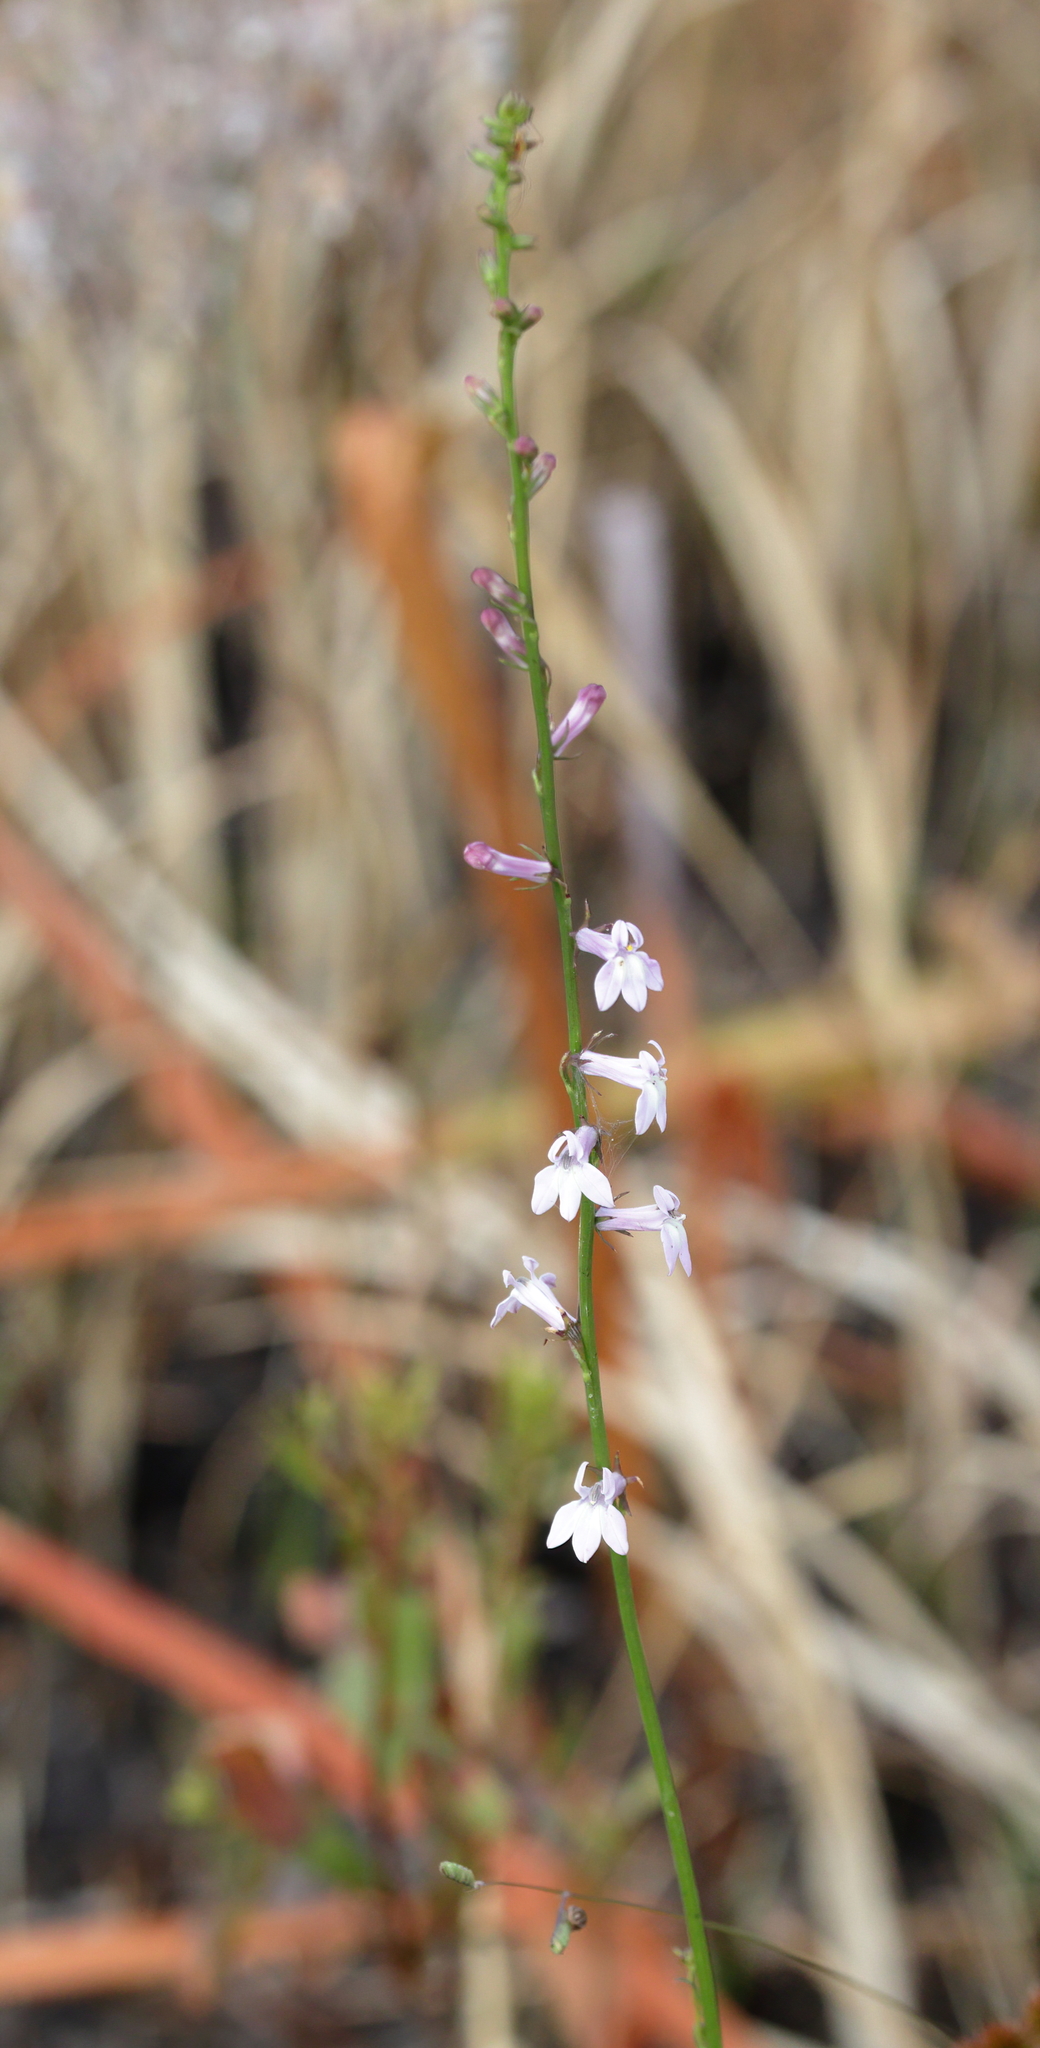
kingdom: Plantae
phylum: Tracheophyta
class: Magnoliopsida
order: Asterales
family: Campanulaceae
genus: Lobelia
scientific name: Lobelia floridana
